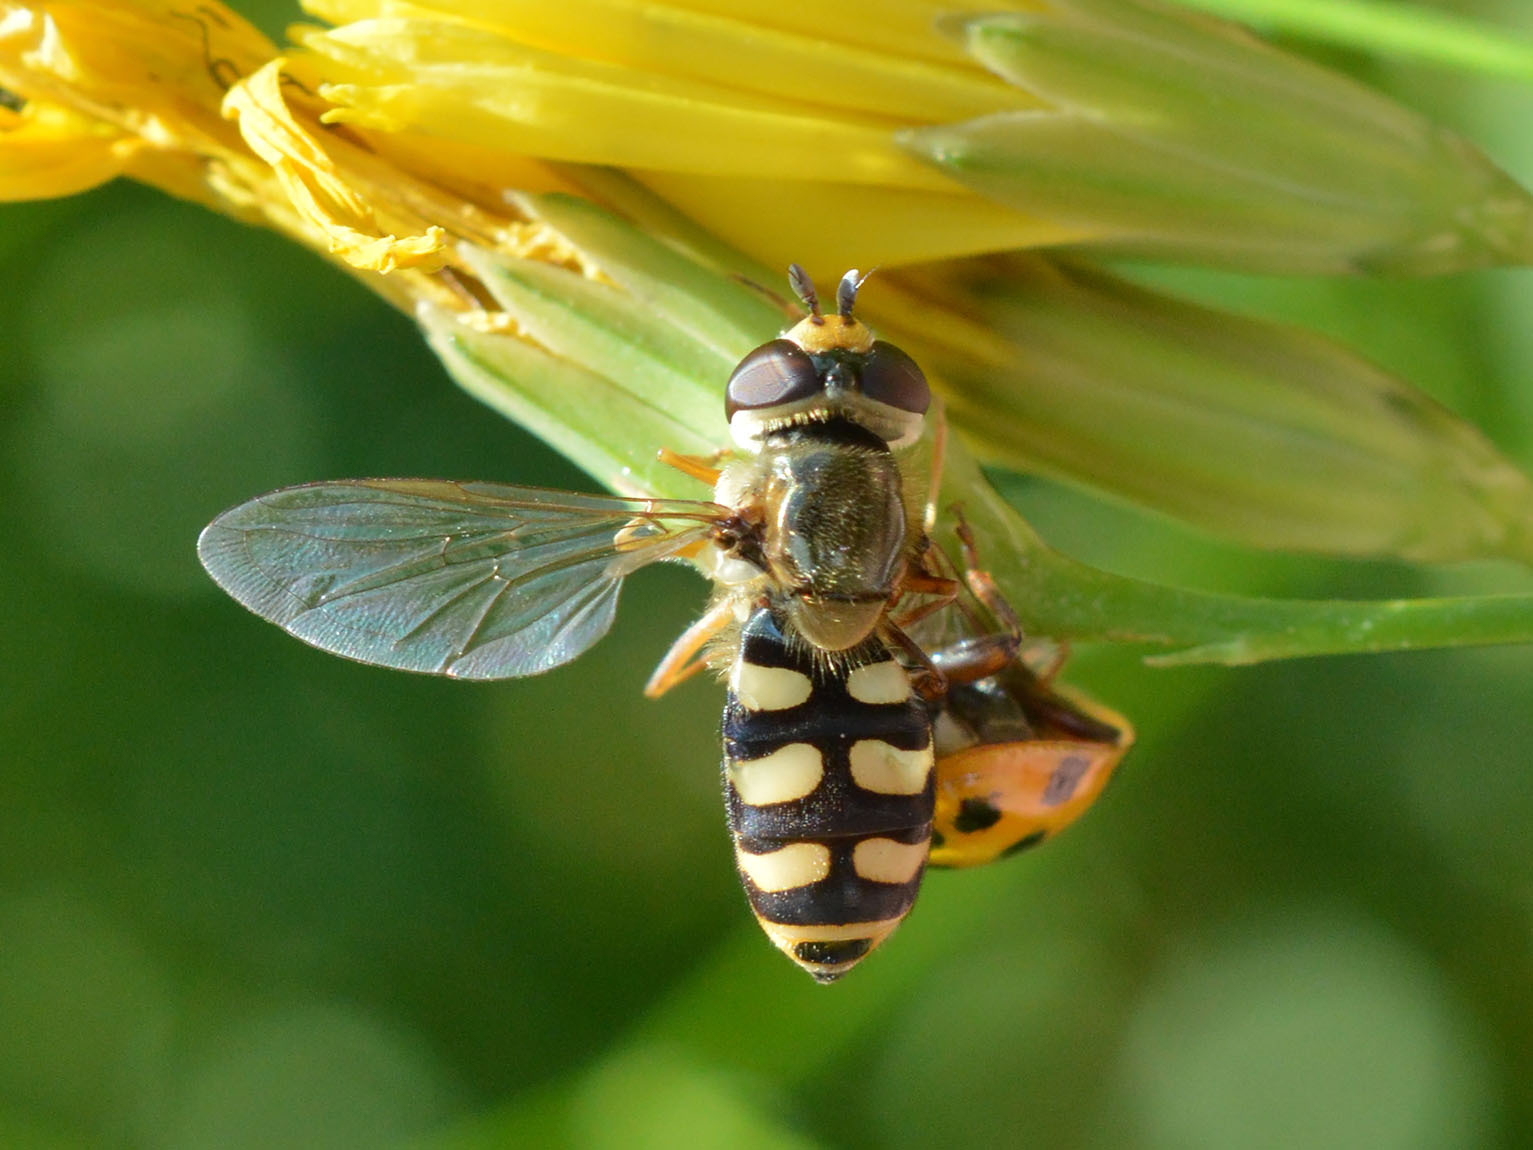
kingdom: Animalia
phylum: Arthropoda
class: Insecta
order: Diptera
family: Syrphidae
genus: Eupeodes
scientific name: Eupeodes corollae
